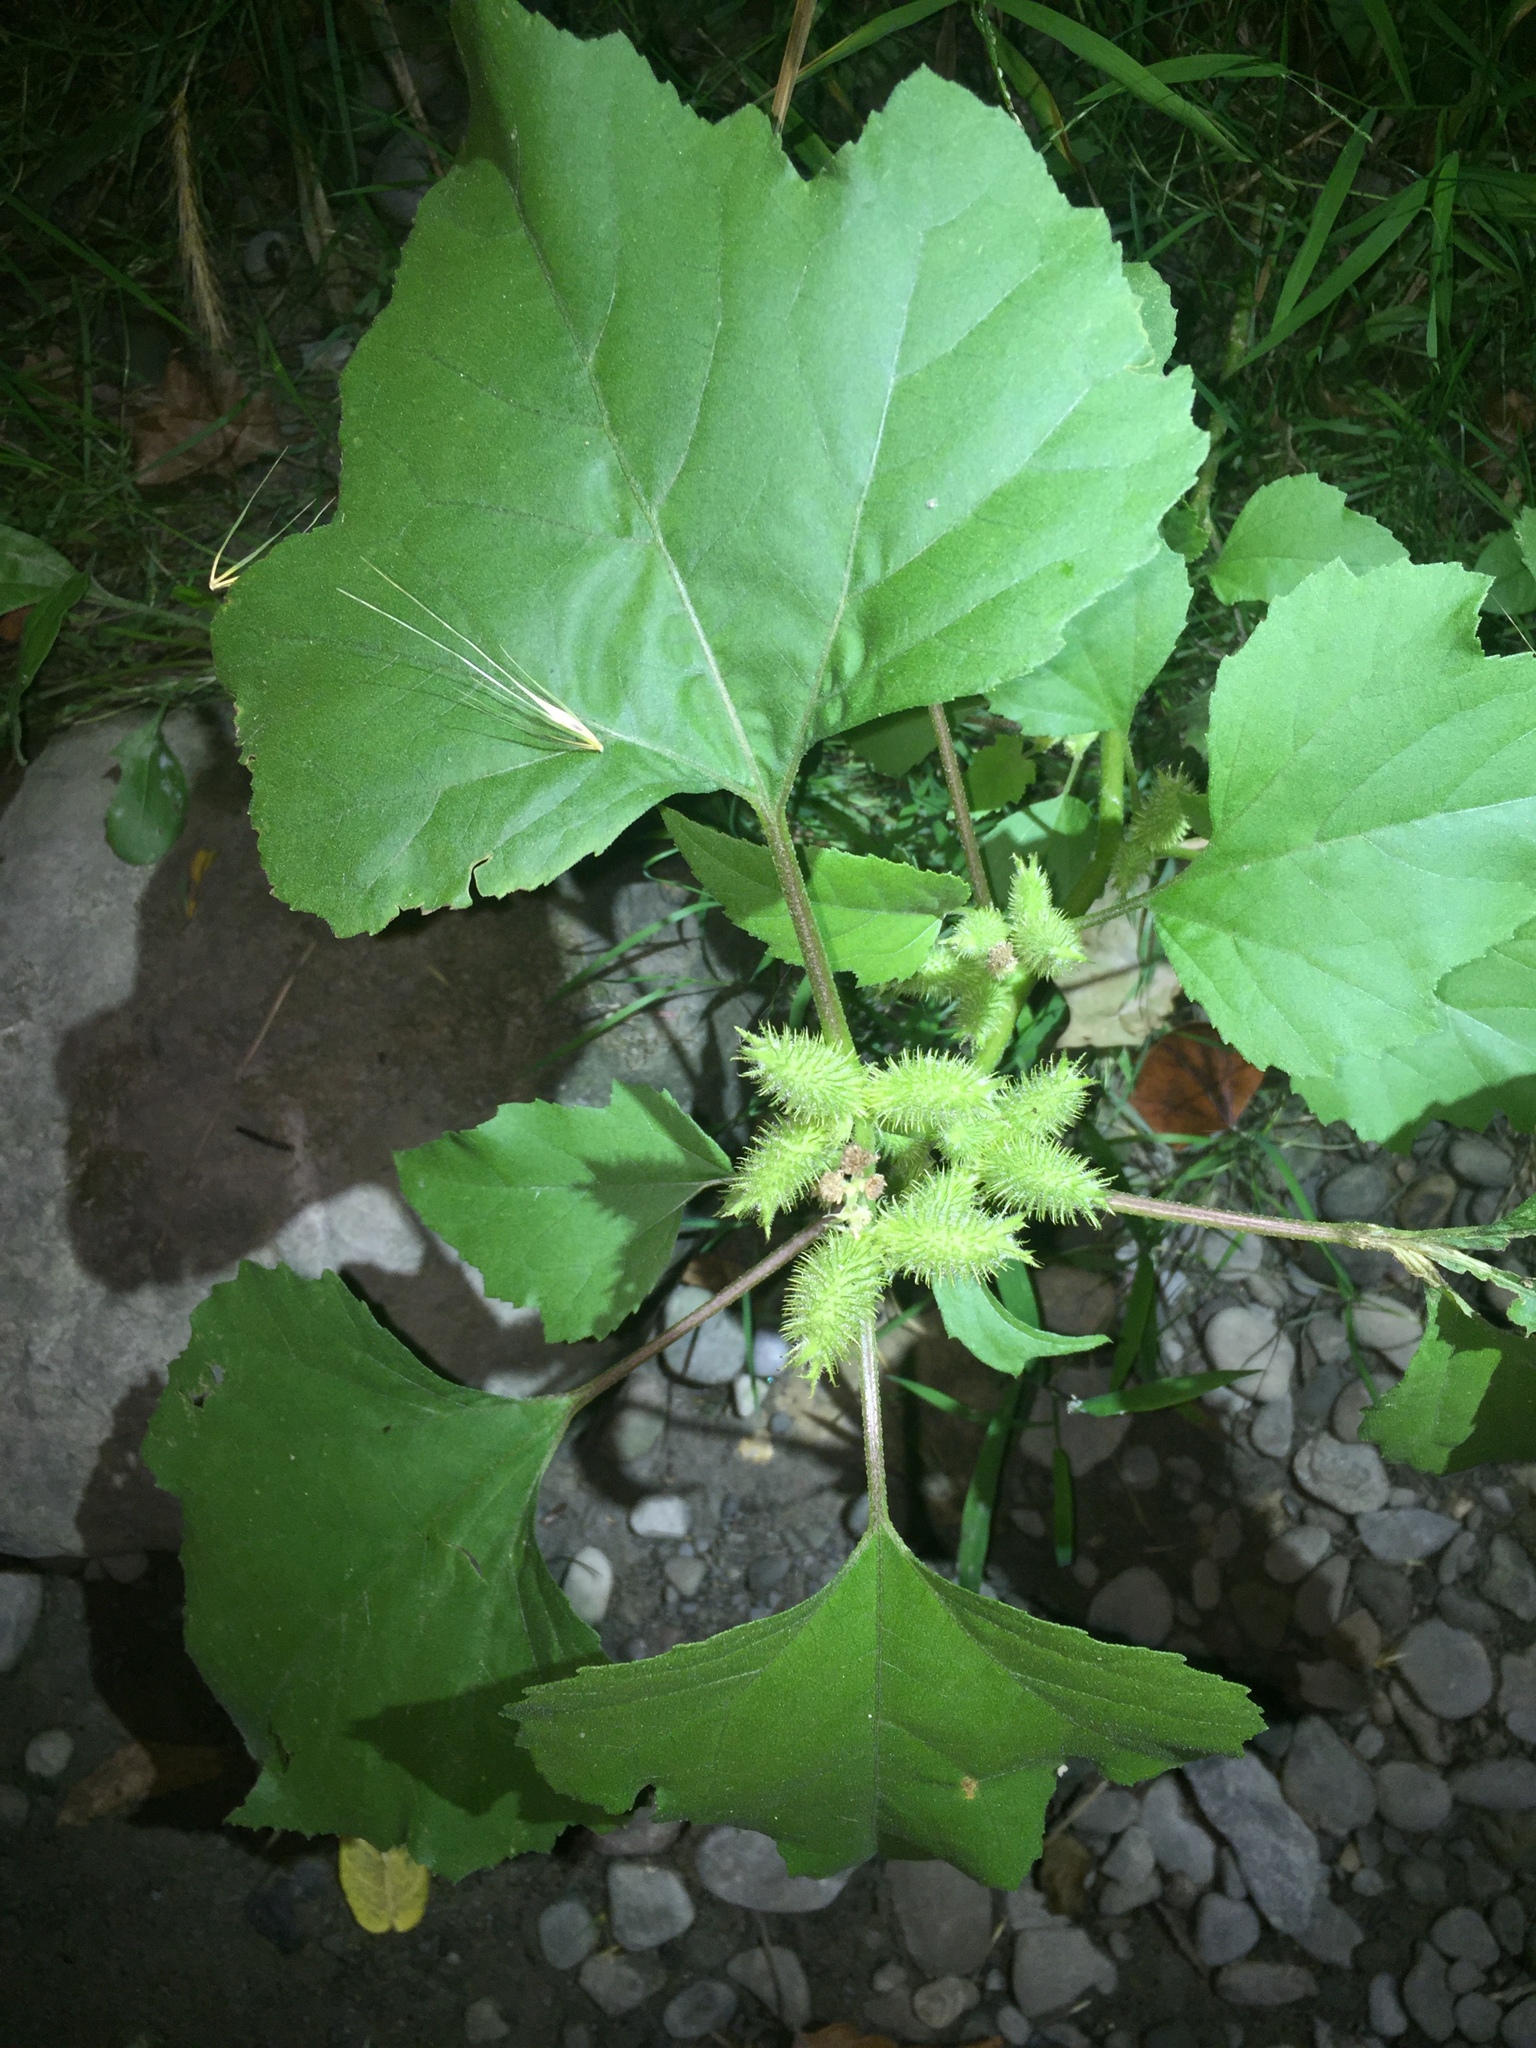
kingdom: Plantae
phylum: Tracheophyta
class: Magnoliopsida
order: Asterales
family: Asteraceae
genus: Xanthium
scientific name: Xanthium strumarium
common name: Rough cocklebur
